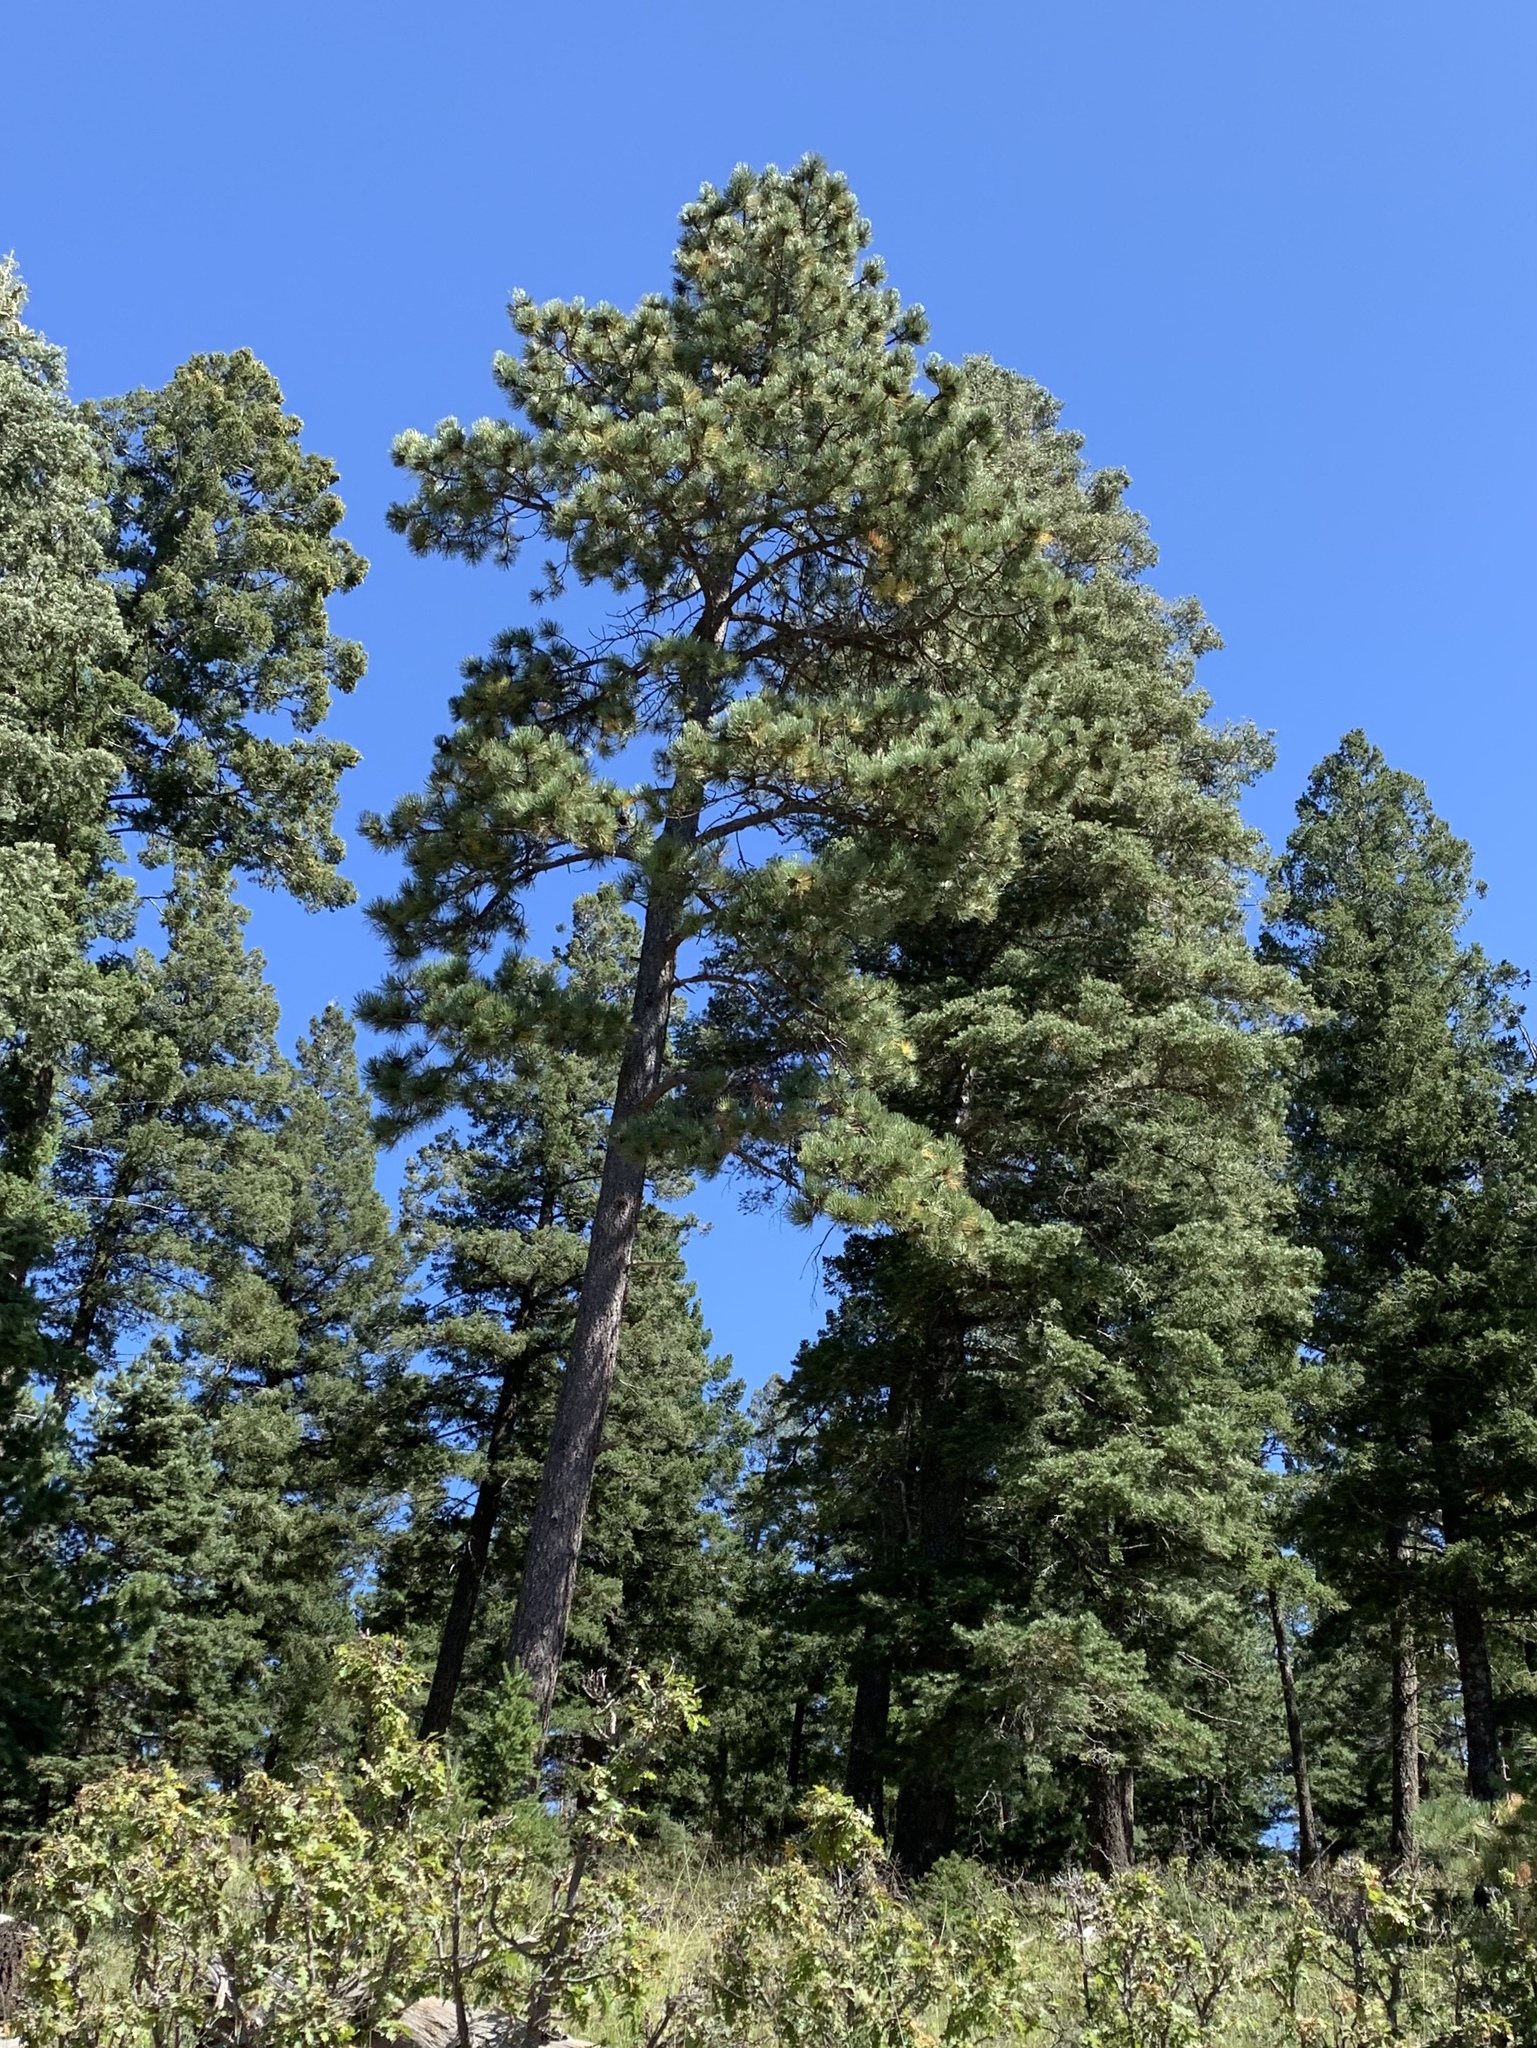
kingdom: Plantae
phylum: Tracheophyta
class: Pinopsida
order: Pinales
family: Pinaceae
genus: Pinus
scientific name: Pinus ponderosa
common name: Western yellow-pine
